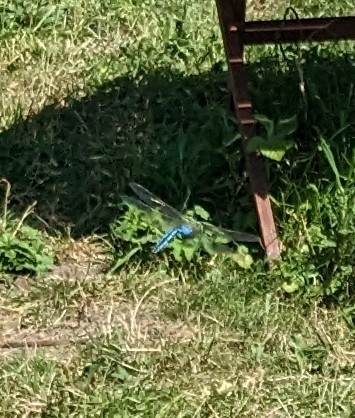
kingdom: Animalia
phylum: Arthropoda
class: Insecta
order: Odonata
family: Aeshnidae
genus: Anax
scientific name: Anax imperator
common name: Emperor dragonfly
